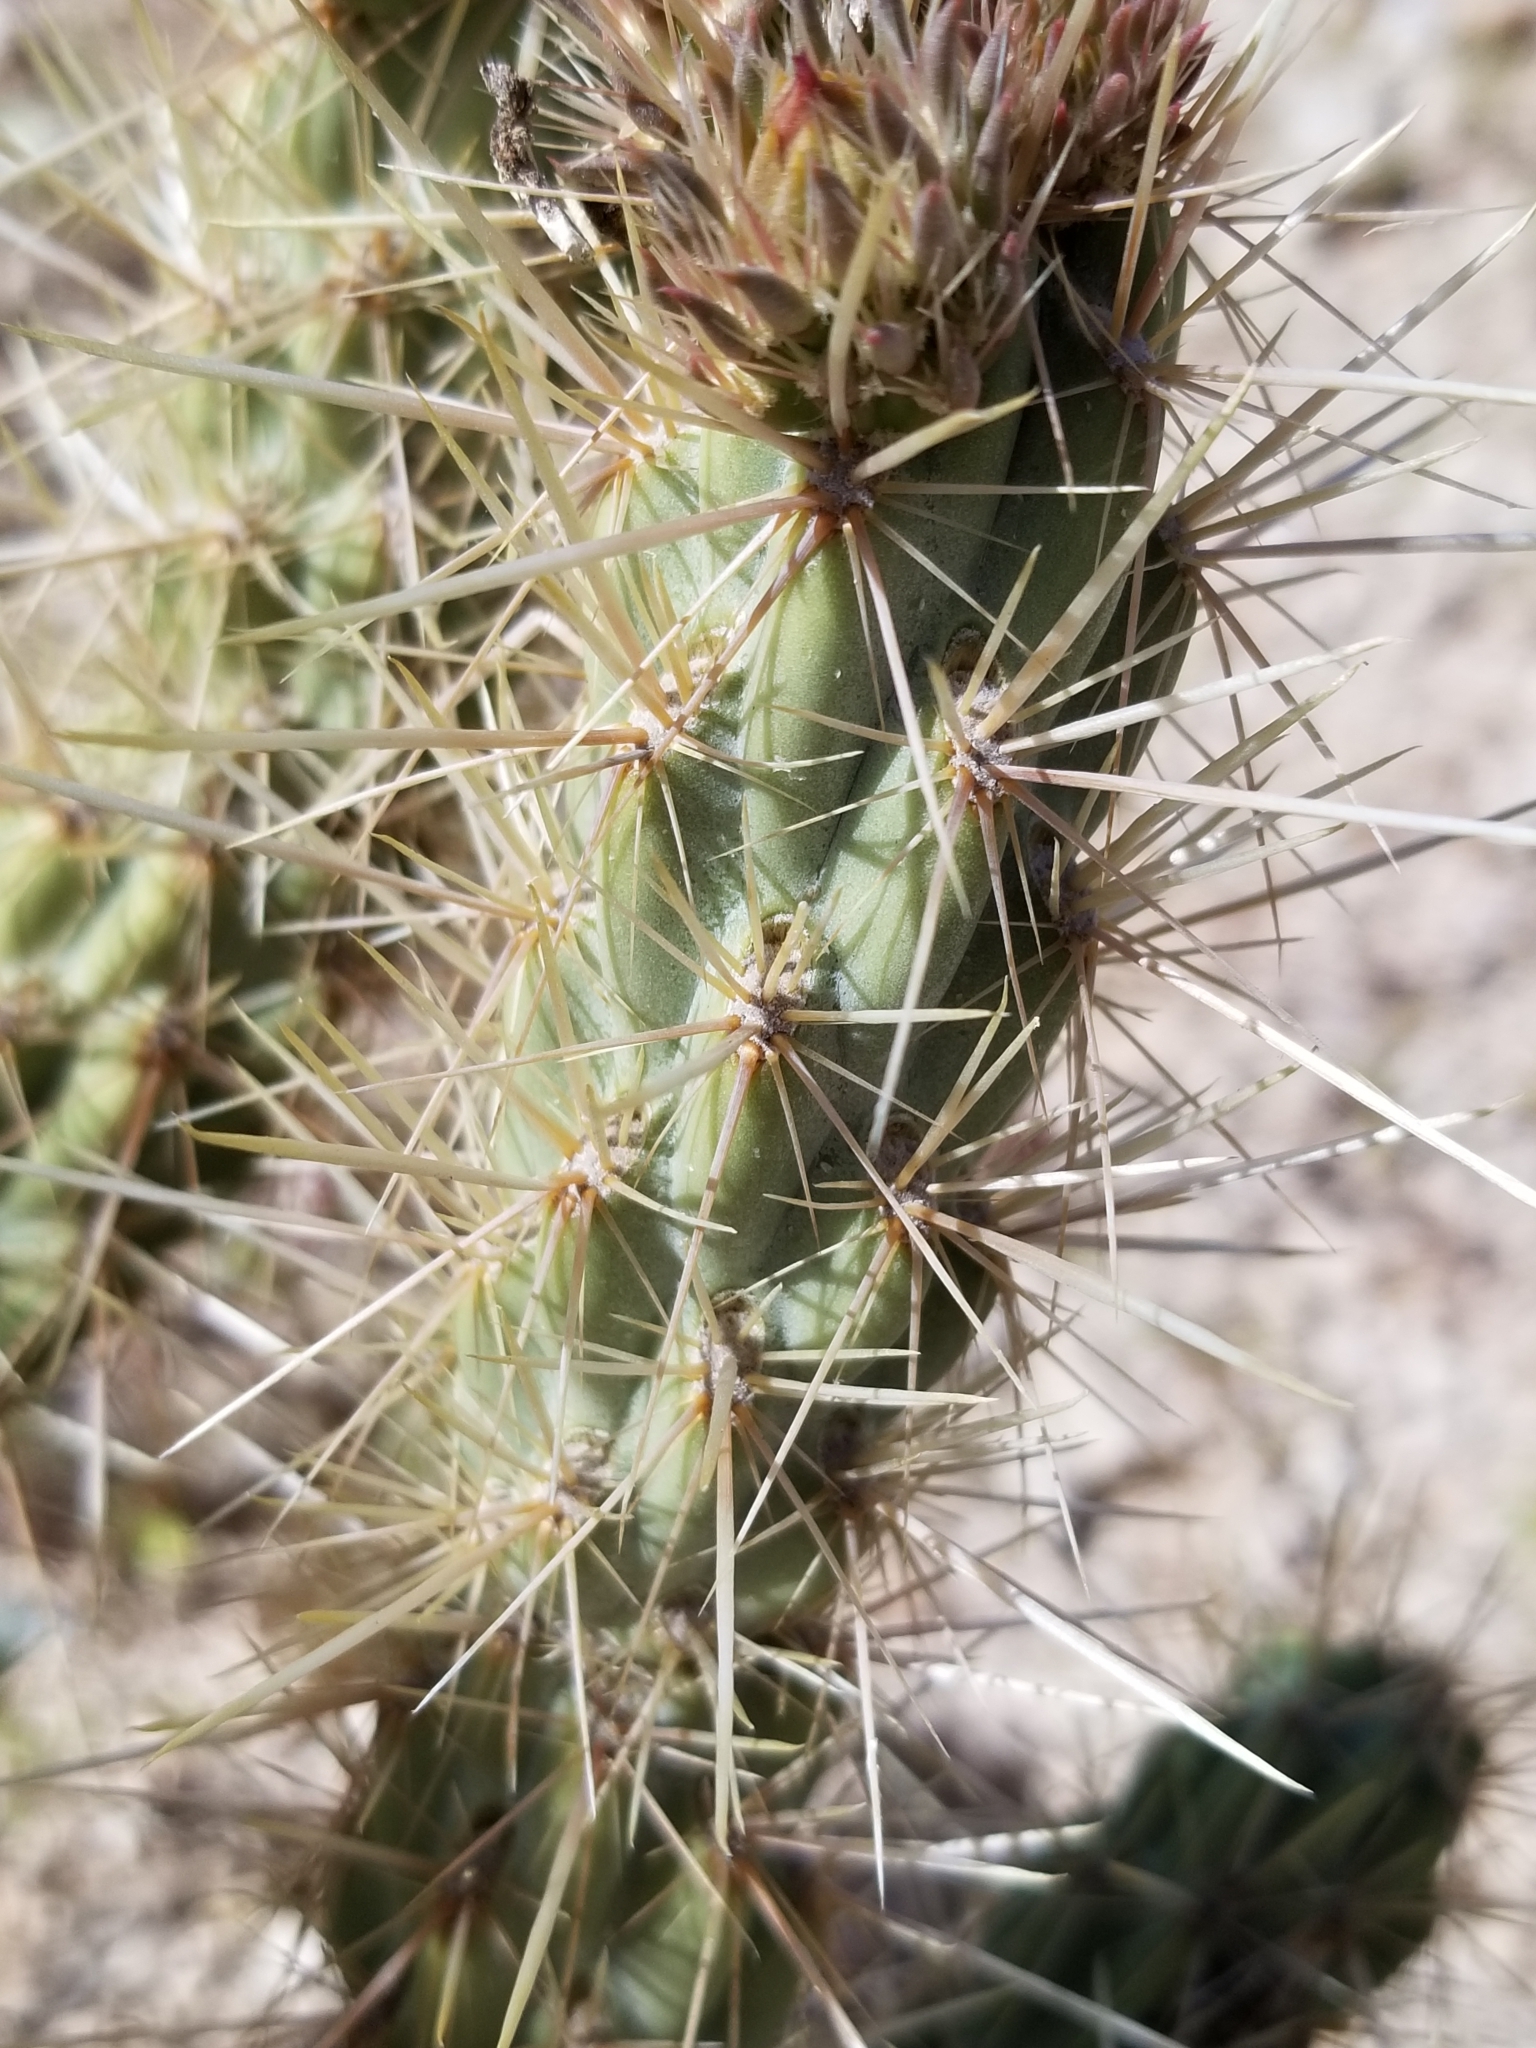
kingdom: Plantae
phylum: Tracheophyta
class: Magnoliopsida
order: Caryophyllales
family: Cactaceae
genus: Cylindropuntia
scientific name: Cylindropuntia ganderi
